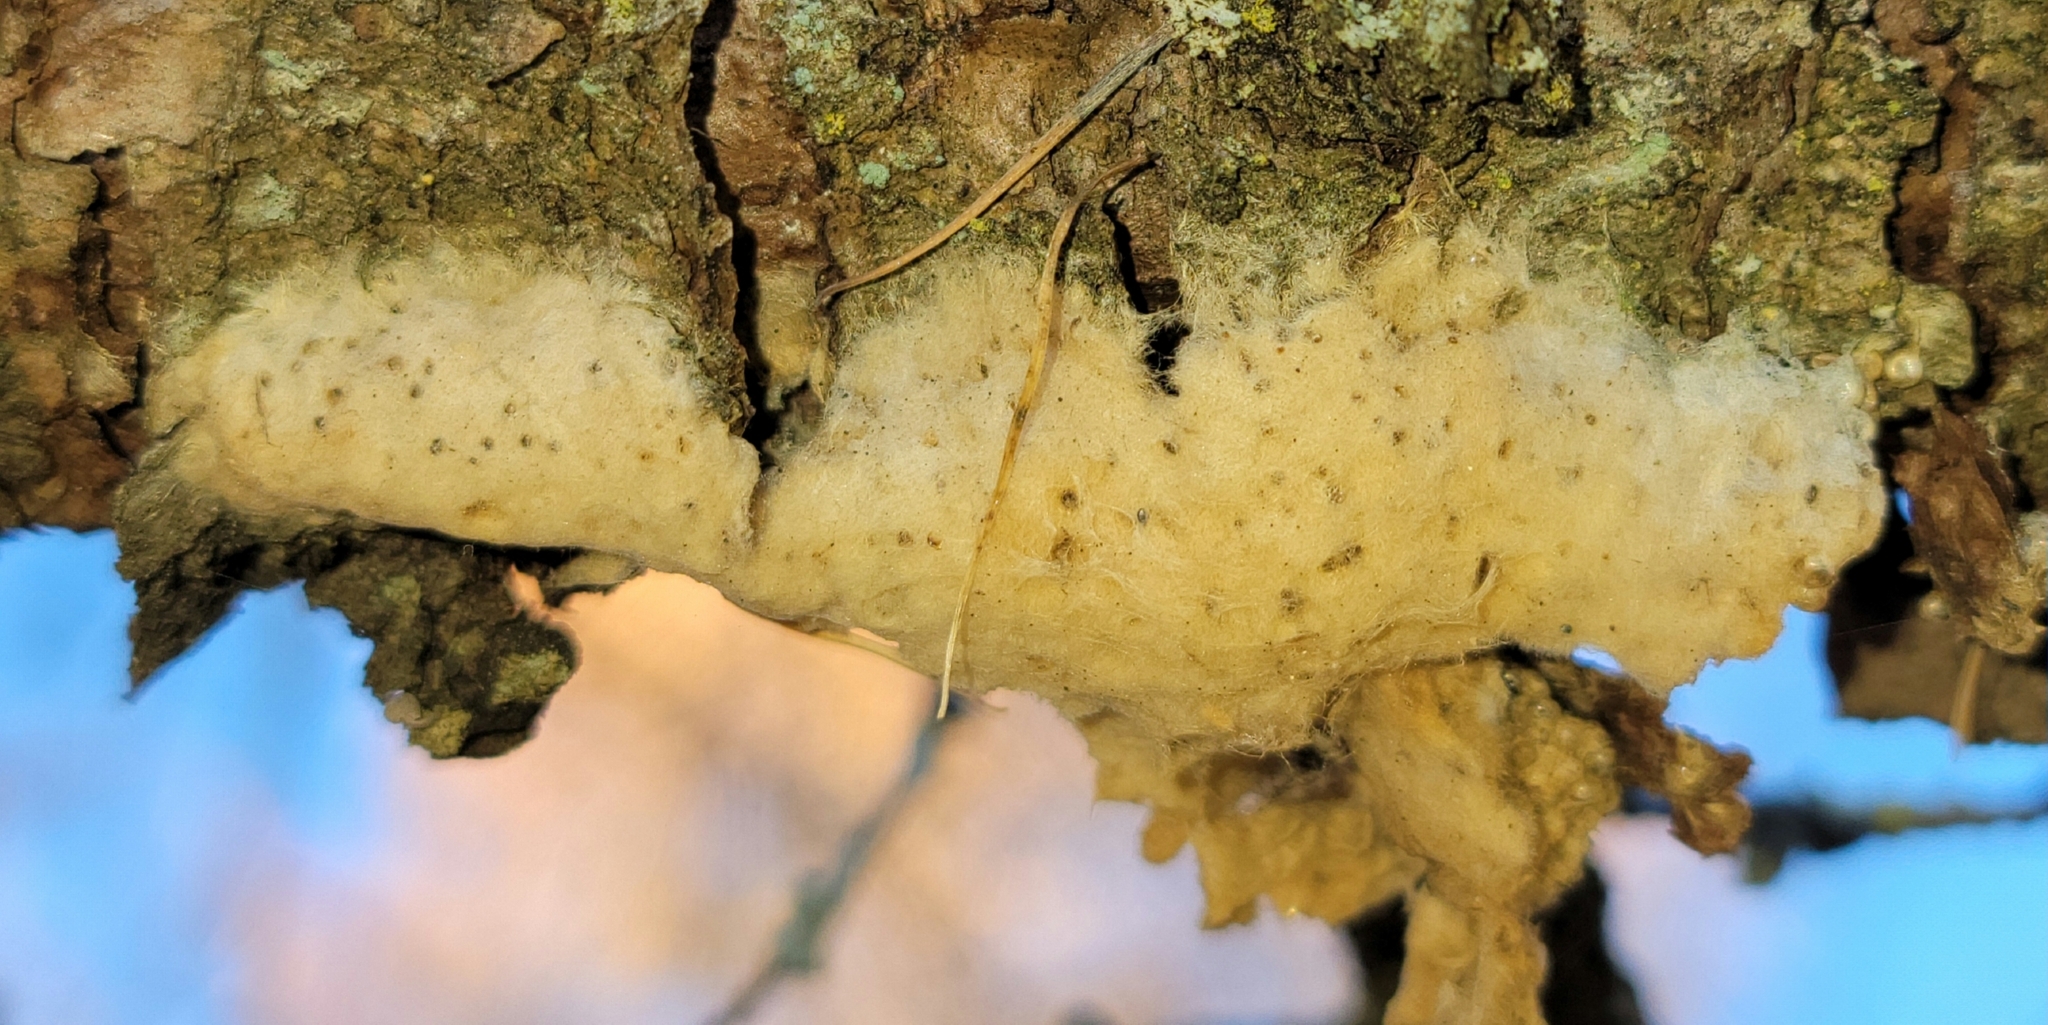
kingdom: Animalia
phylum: Arthropoda
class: Insecta
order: Lepidoptera
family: Erebidae
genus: Lymantria
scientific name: Lymantria dispar
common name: Gypsy moth
